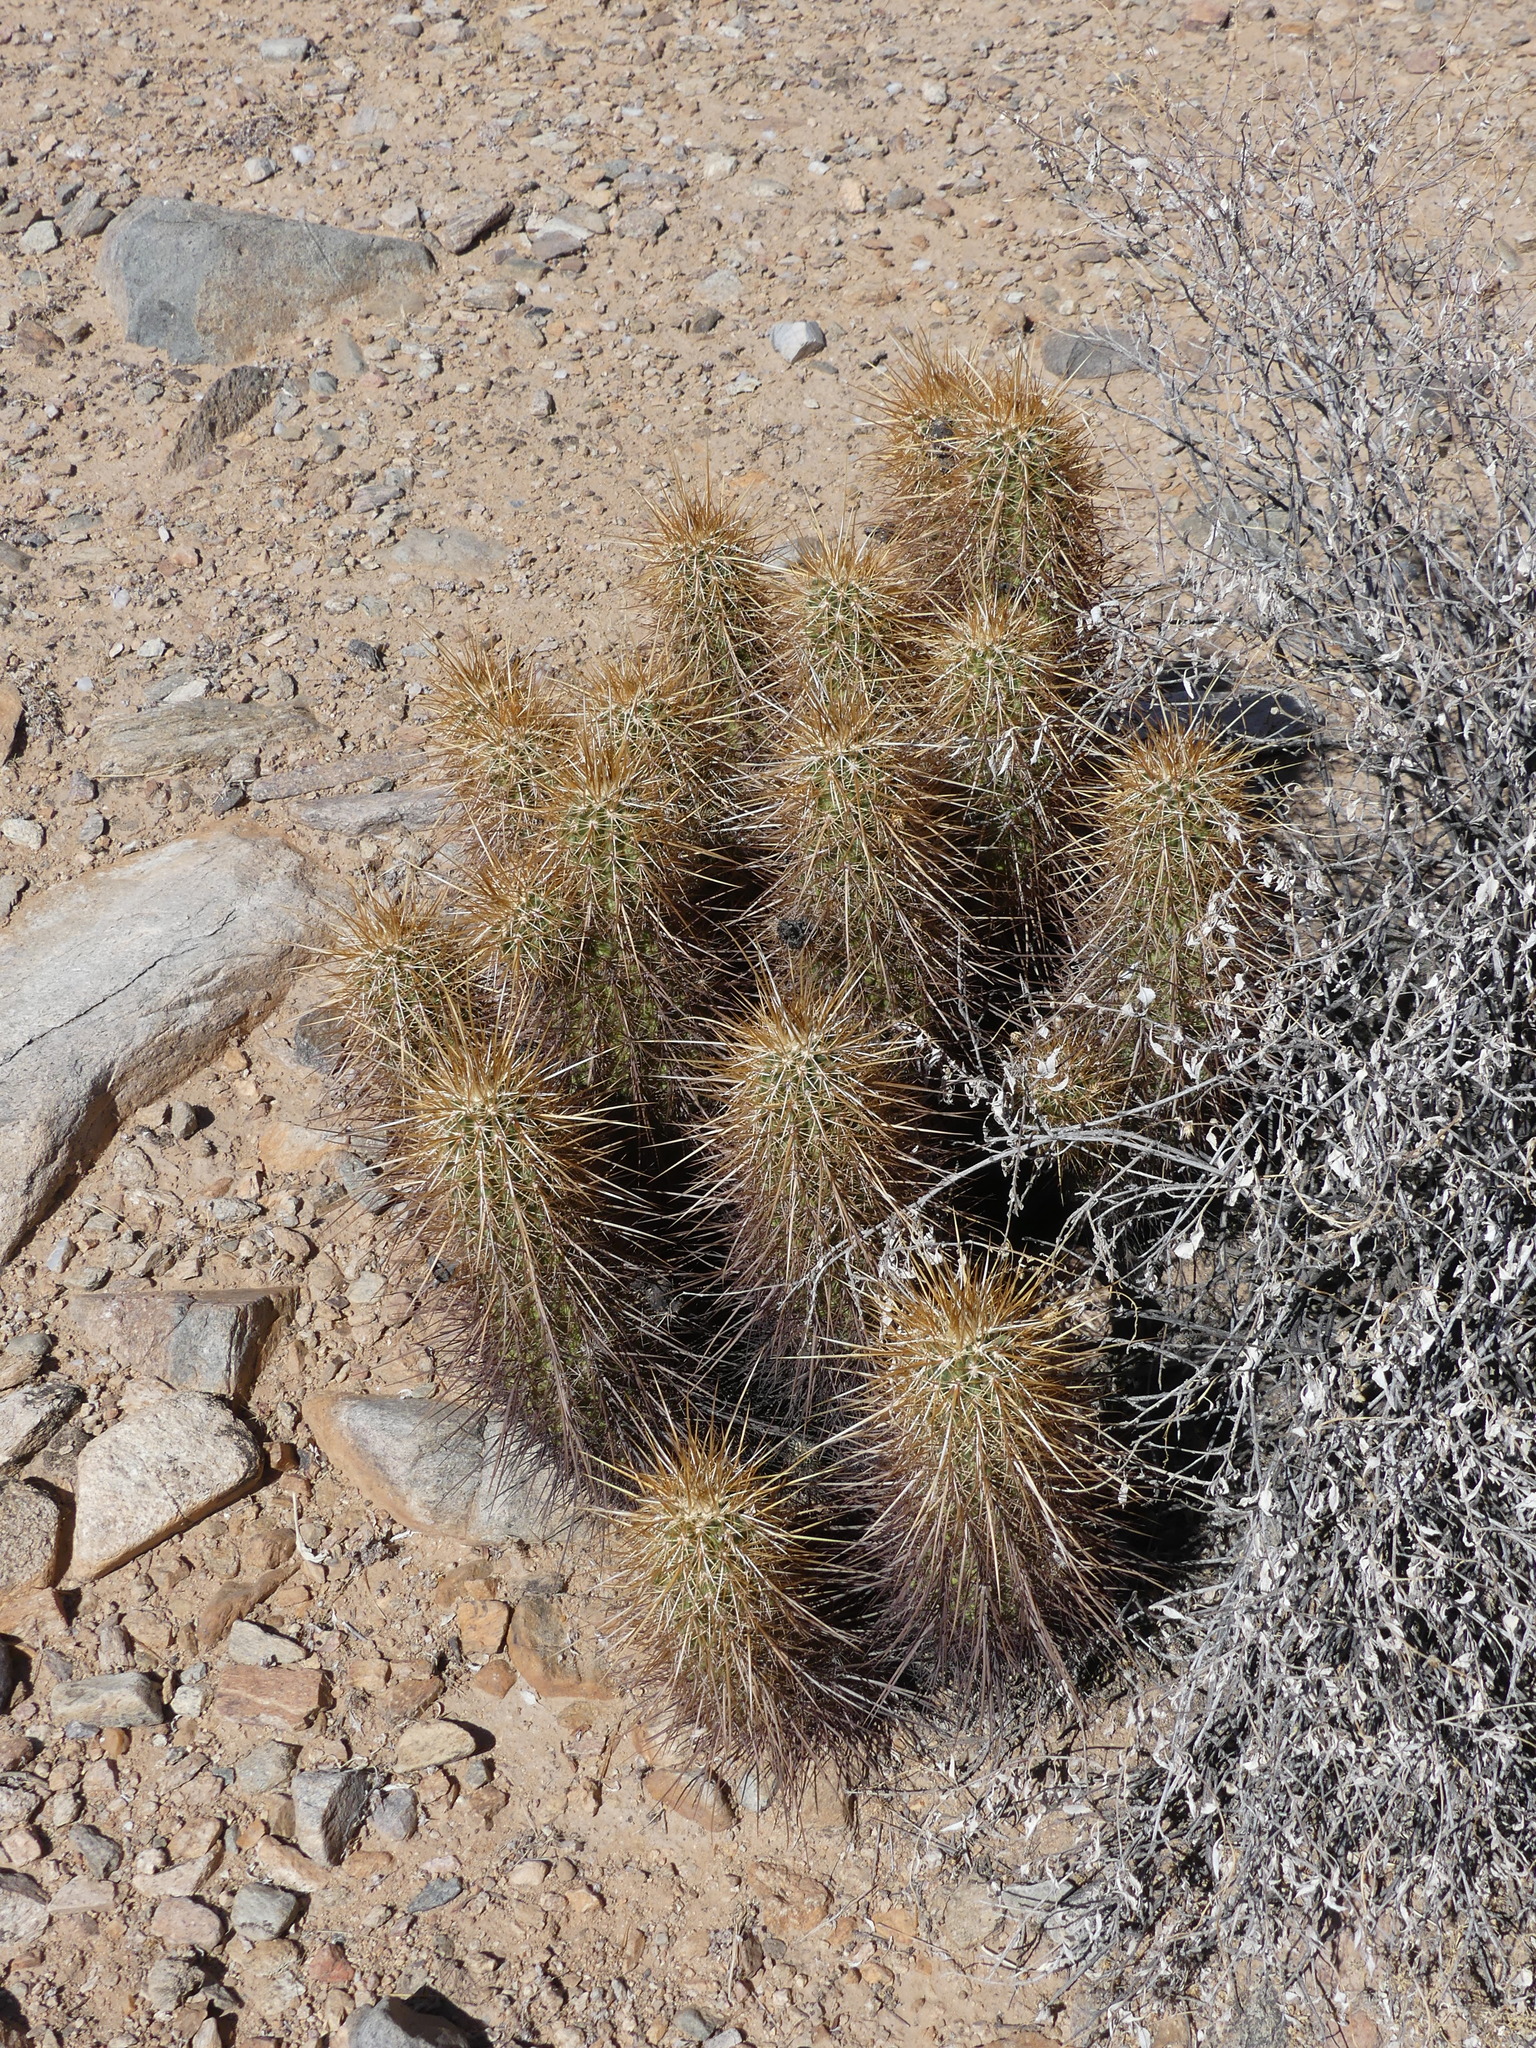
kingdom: Plantae
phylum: Tracheophyta
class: Magnoliopsida
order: Caryophyllales
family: Cactaceae
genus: Echinocereus
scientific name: Echinocereus engelmannii
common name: Engelmann's hedgehog cactus
